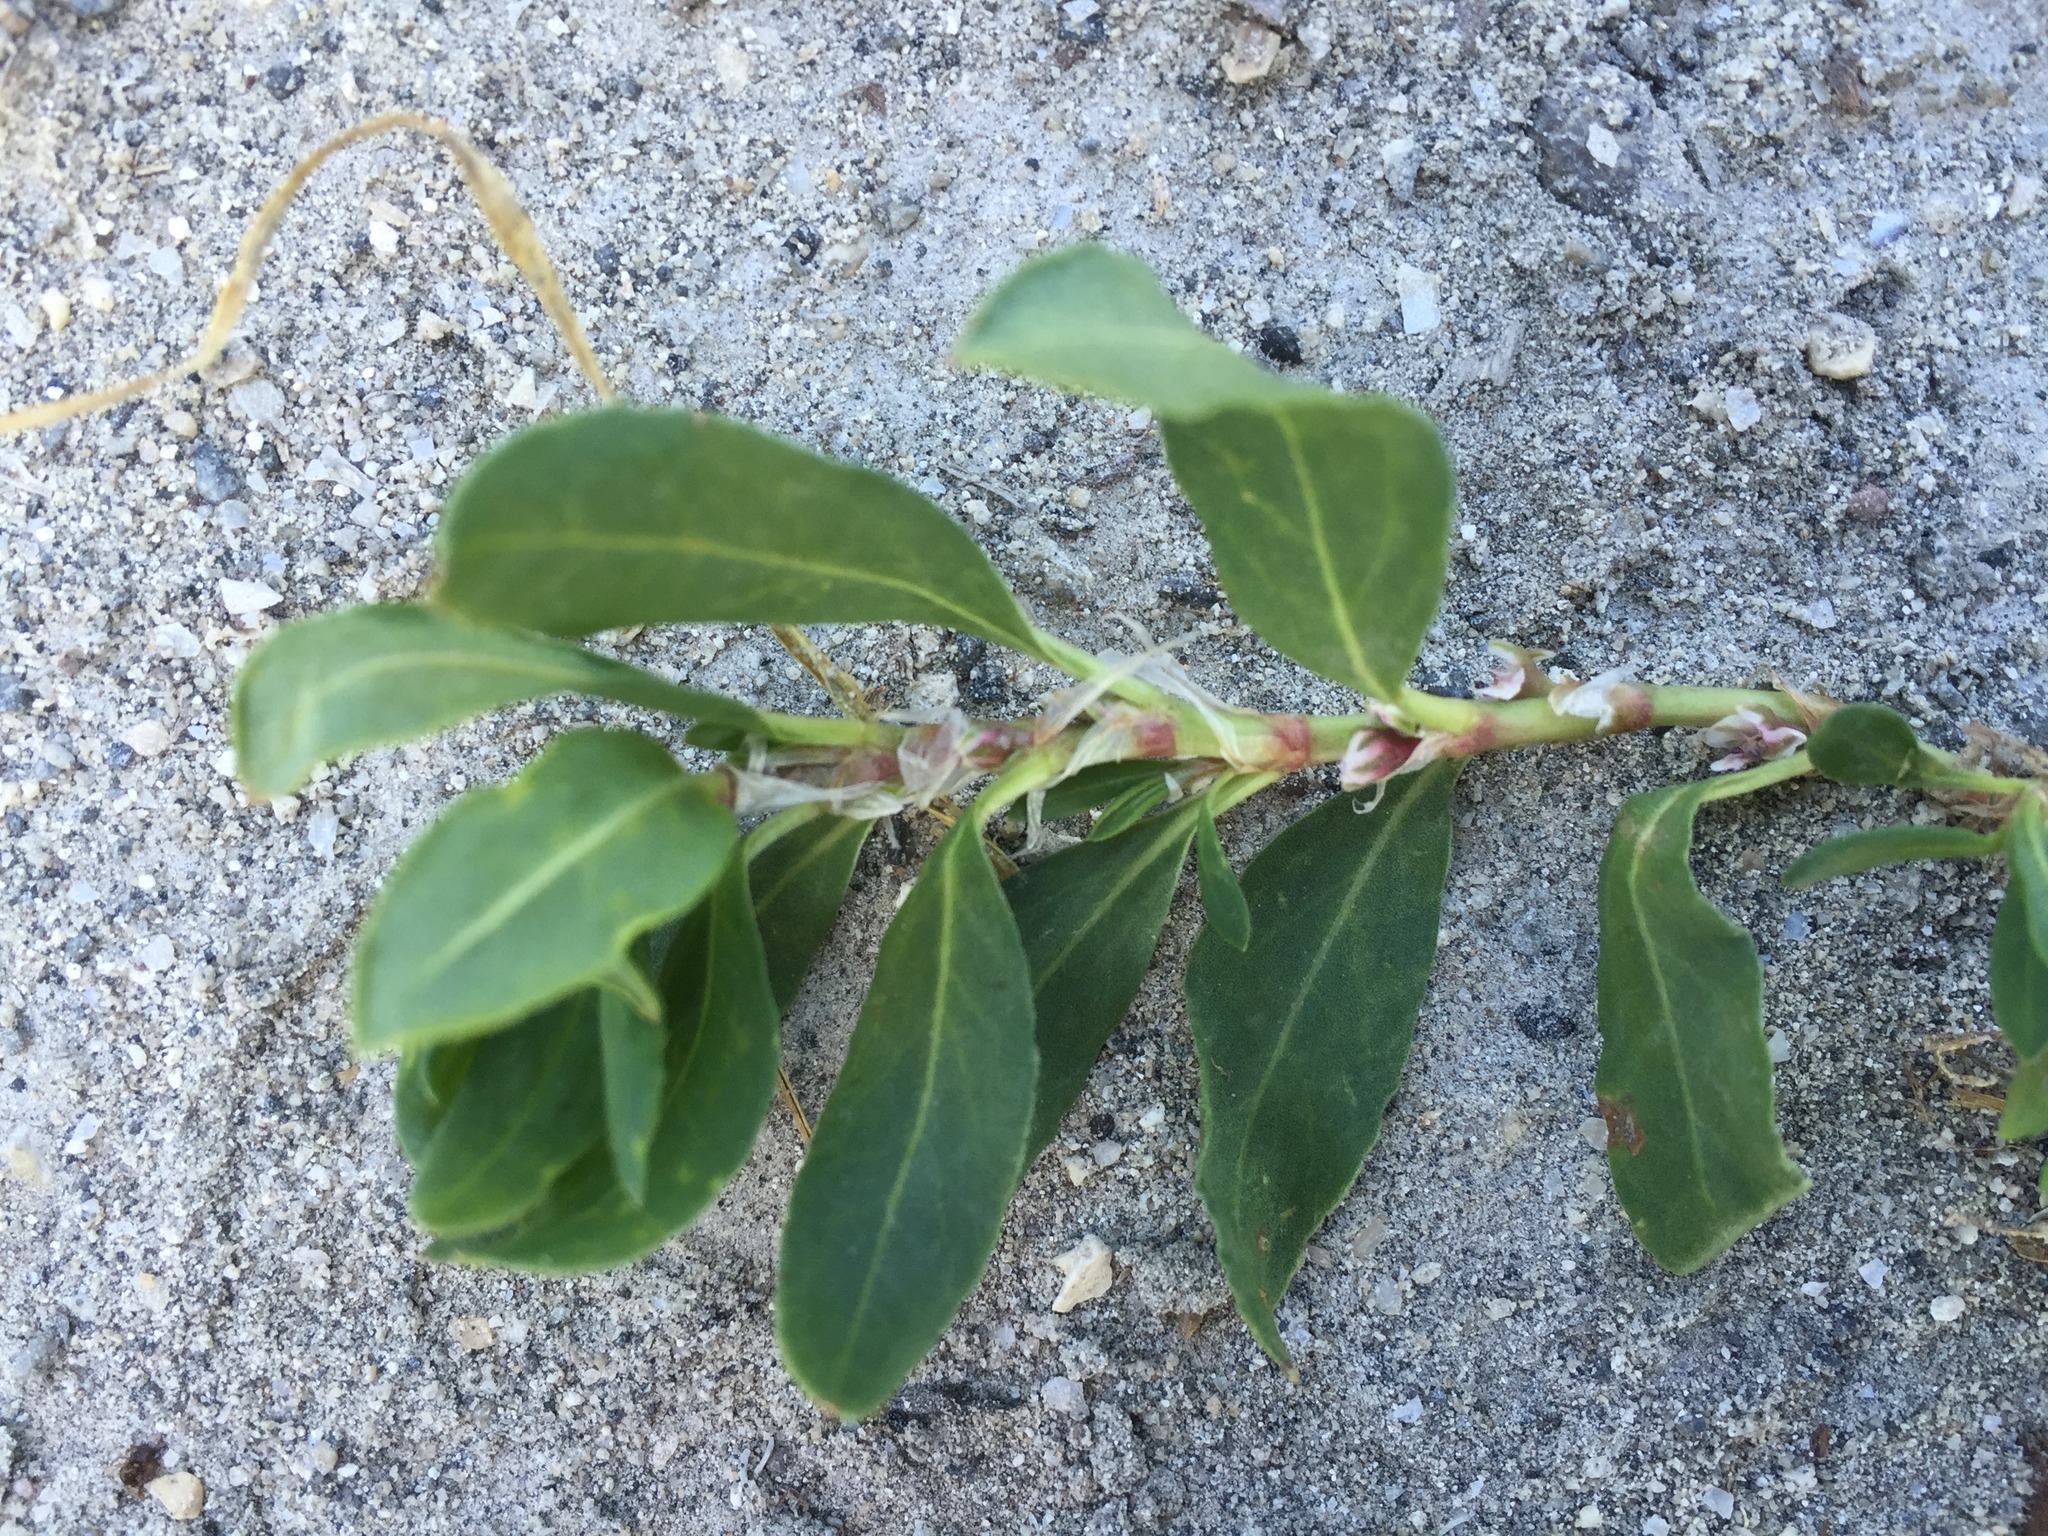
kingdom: Plantae
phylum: Tracheophyta
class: Magnoliopsida
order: Caryophyllales
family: Polygonaceae
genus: Koenigia
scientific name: Koenigia alpina
